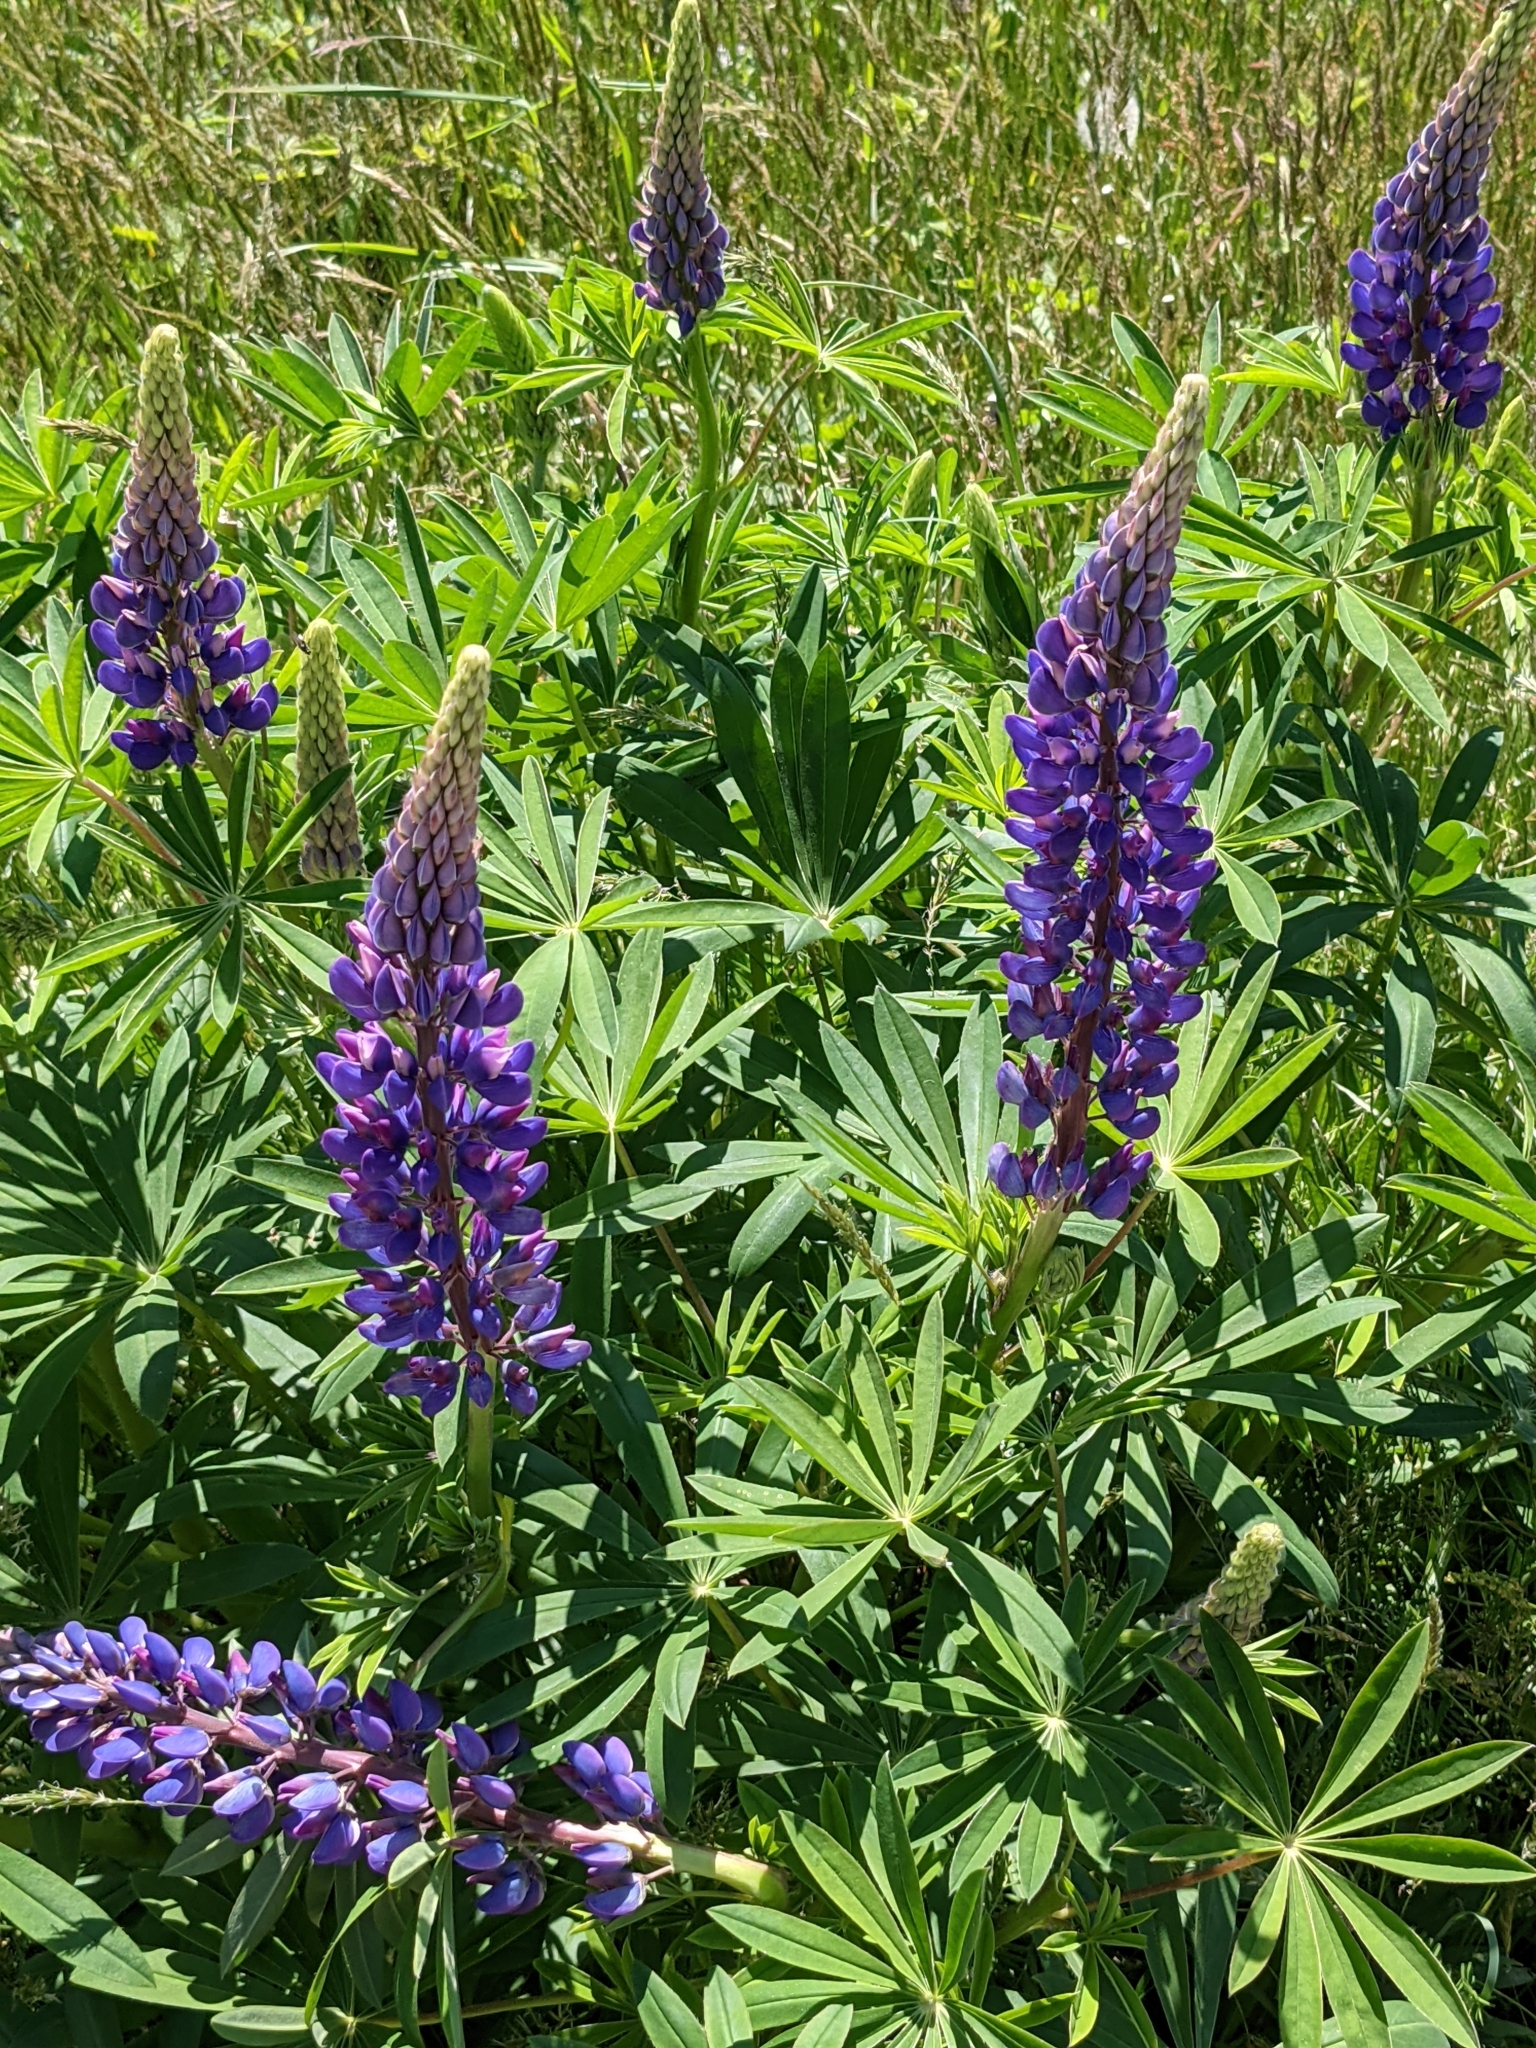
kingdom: Plantae
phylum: Tracheophyta
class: Magnoliopsida
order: Fabales
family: Fabaceae
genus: Lupinus
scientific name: Lupinus polyphyllus
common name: Garden lupin
